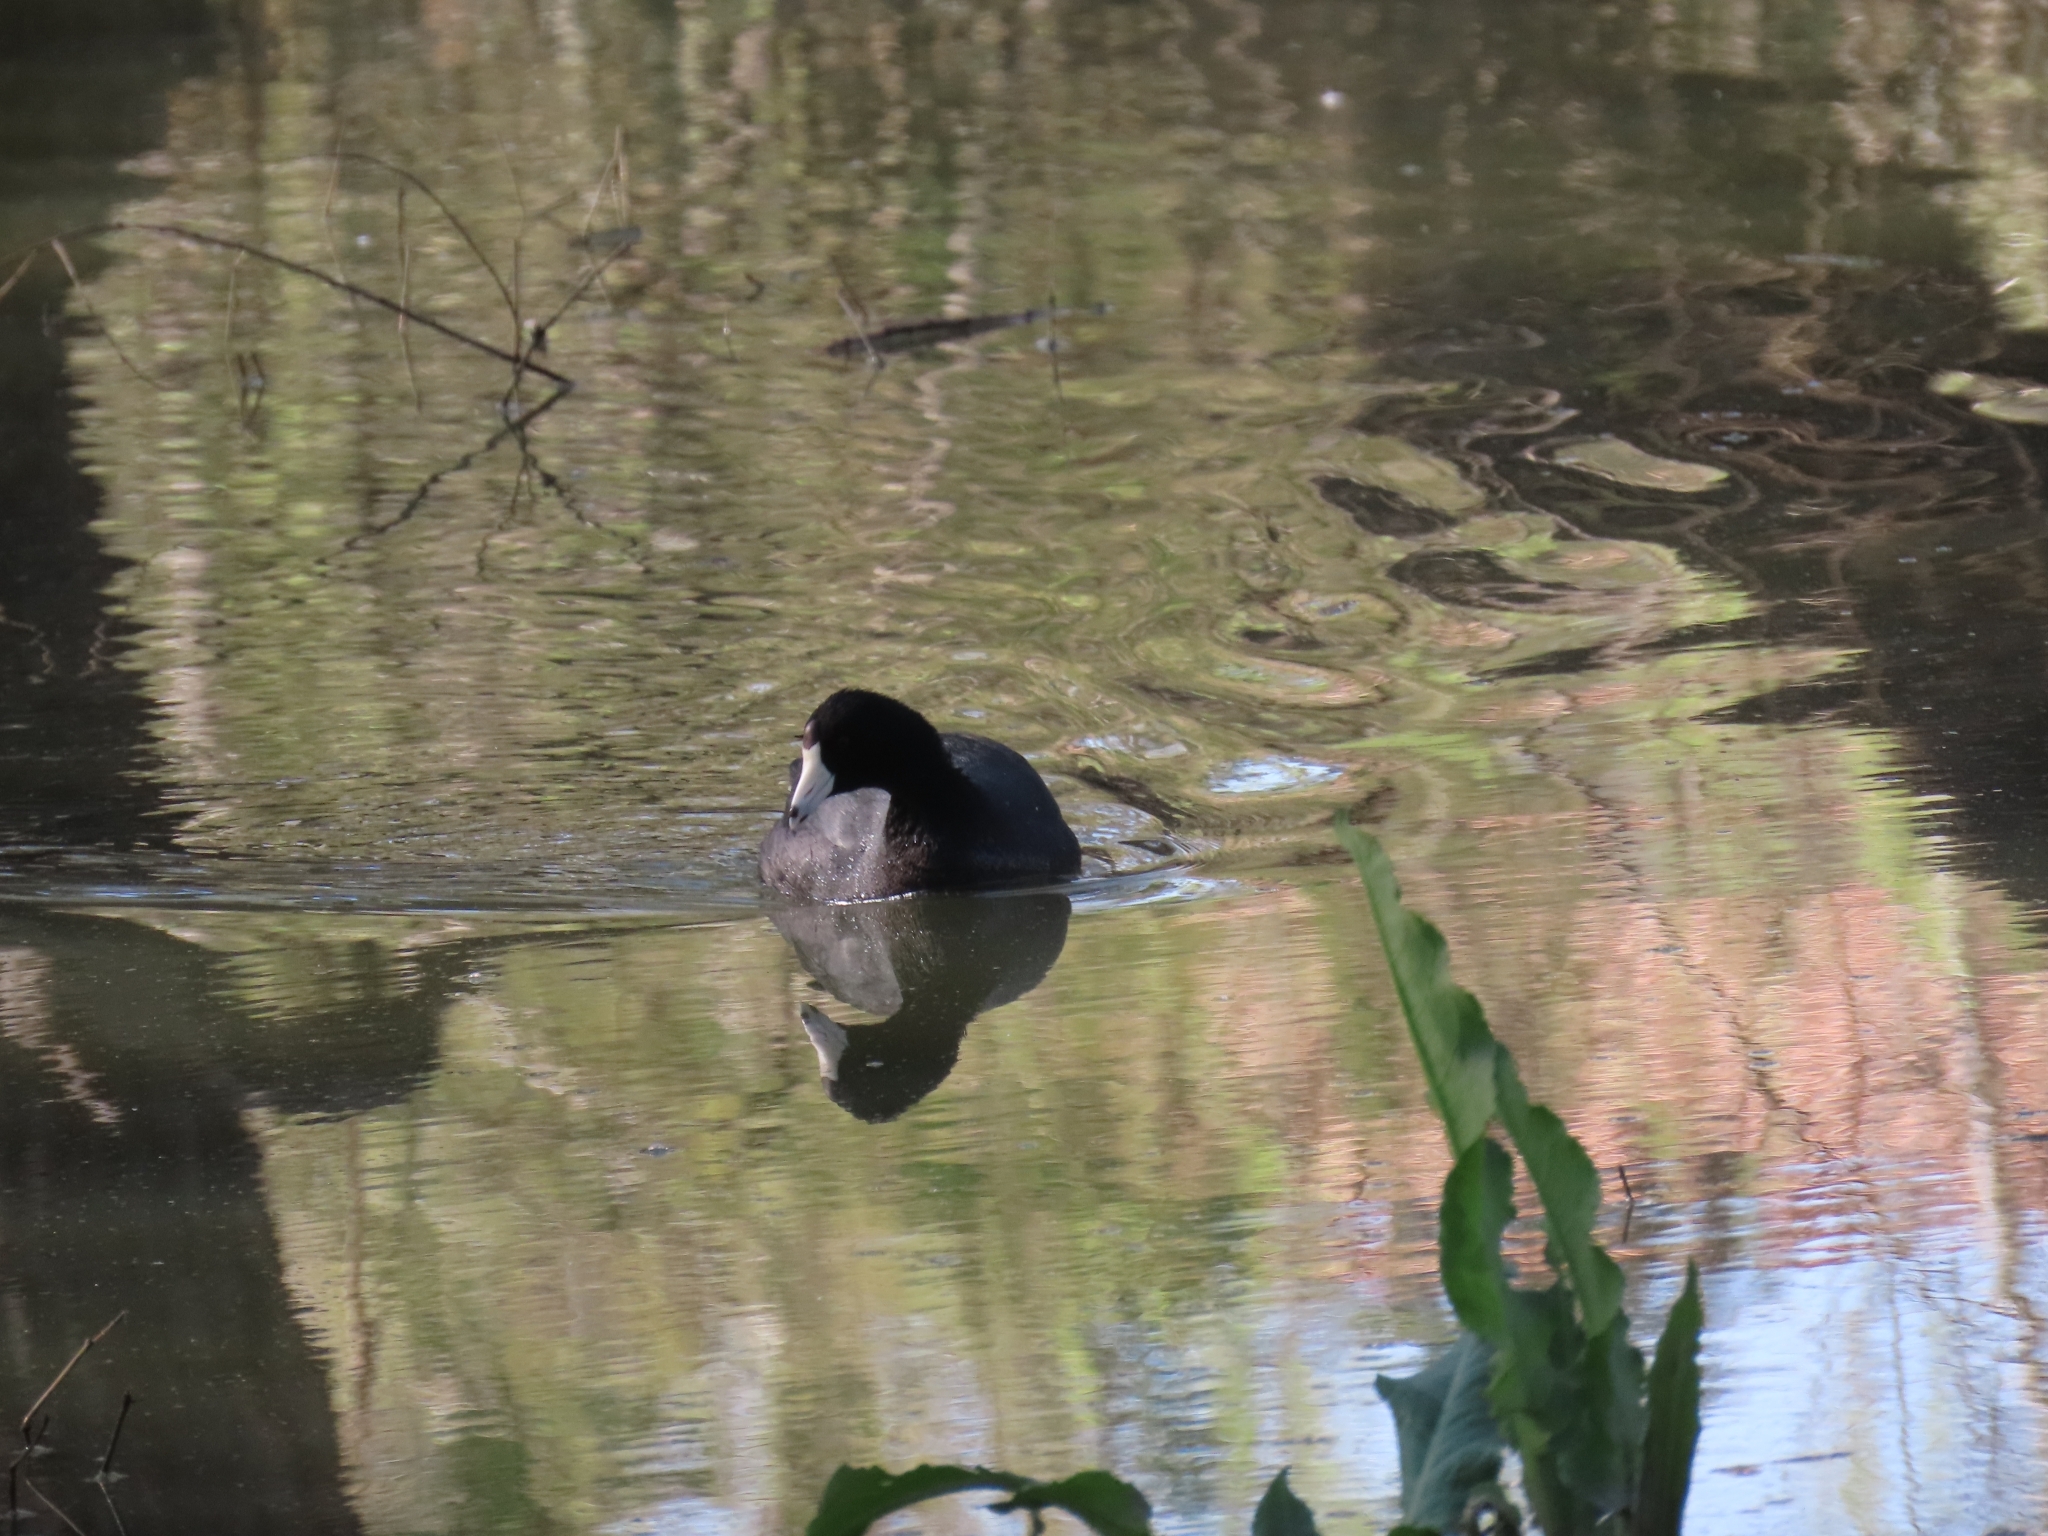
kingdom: Animalia
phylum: Chordata
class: Aves
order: Gruiformes
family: Rallidae
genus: Fulica
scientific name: Fulica americana
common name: American coot
